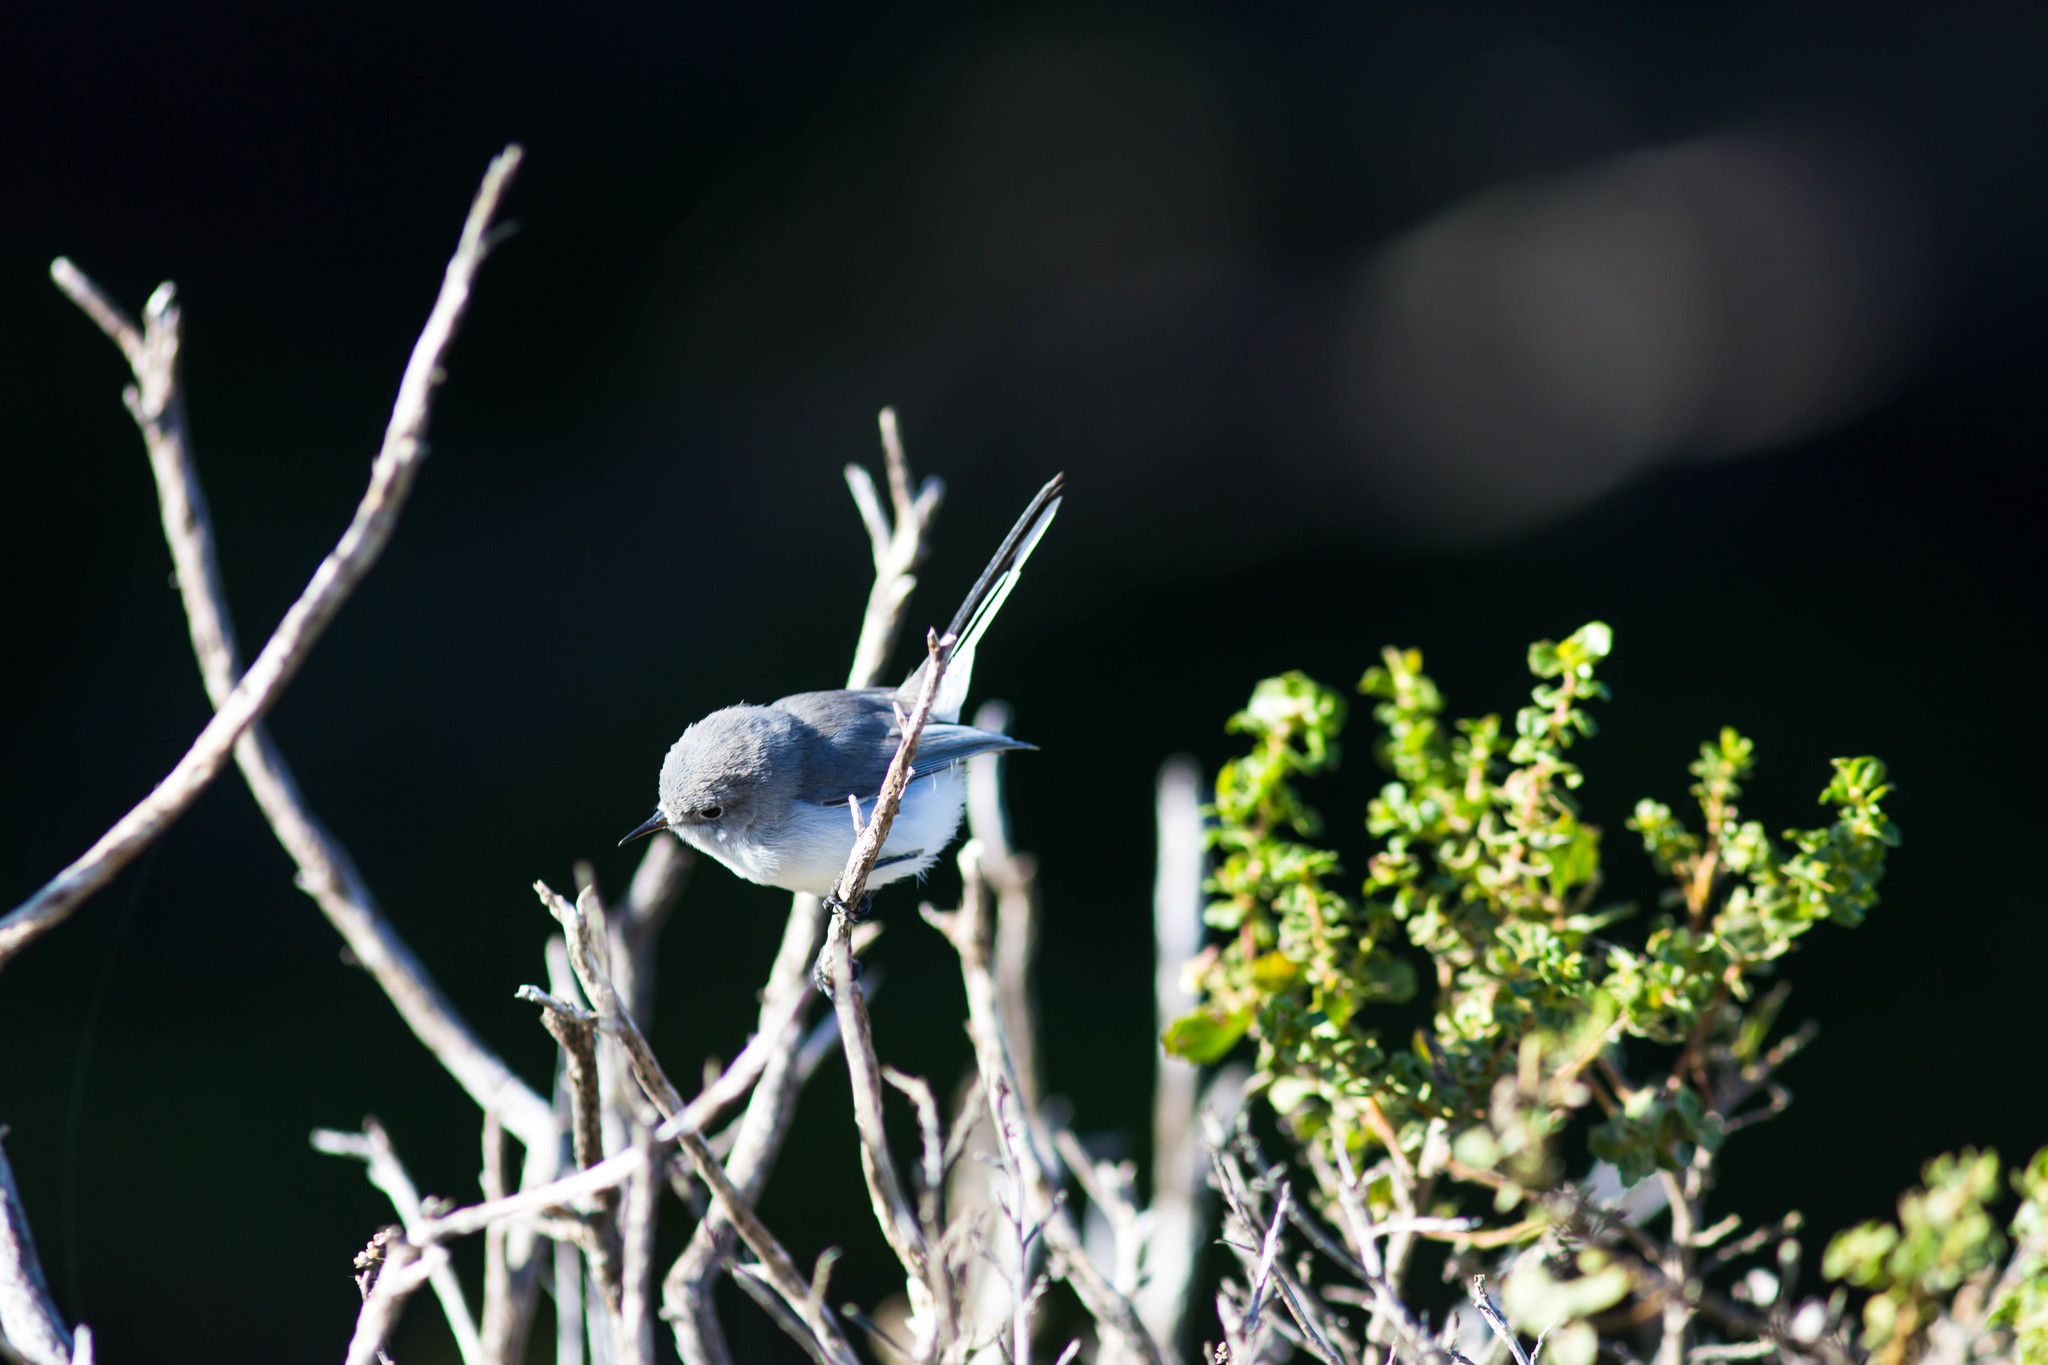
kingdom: Animalia
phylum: Chordata
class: Aves
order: Passeriformes
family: Polioptilidae
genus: Polioptila
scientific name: Polioptila caerulea
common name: Blue-gray gnatcatcher
